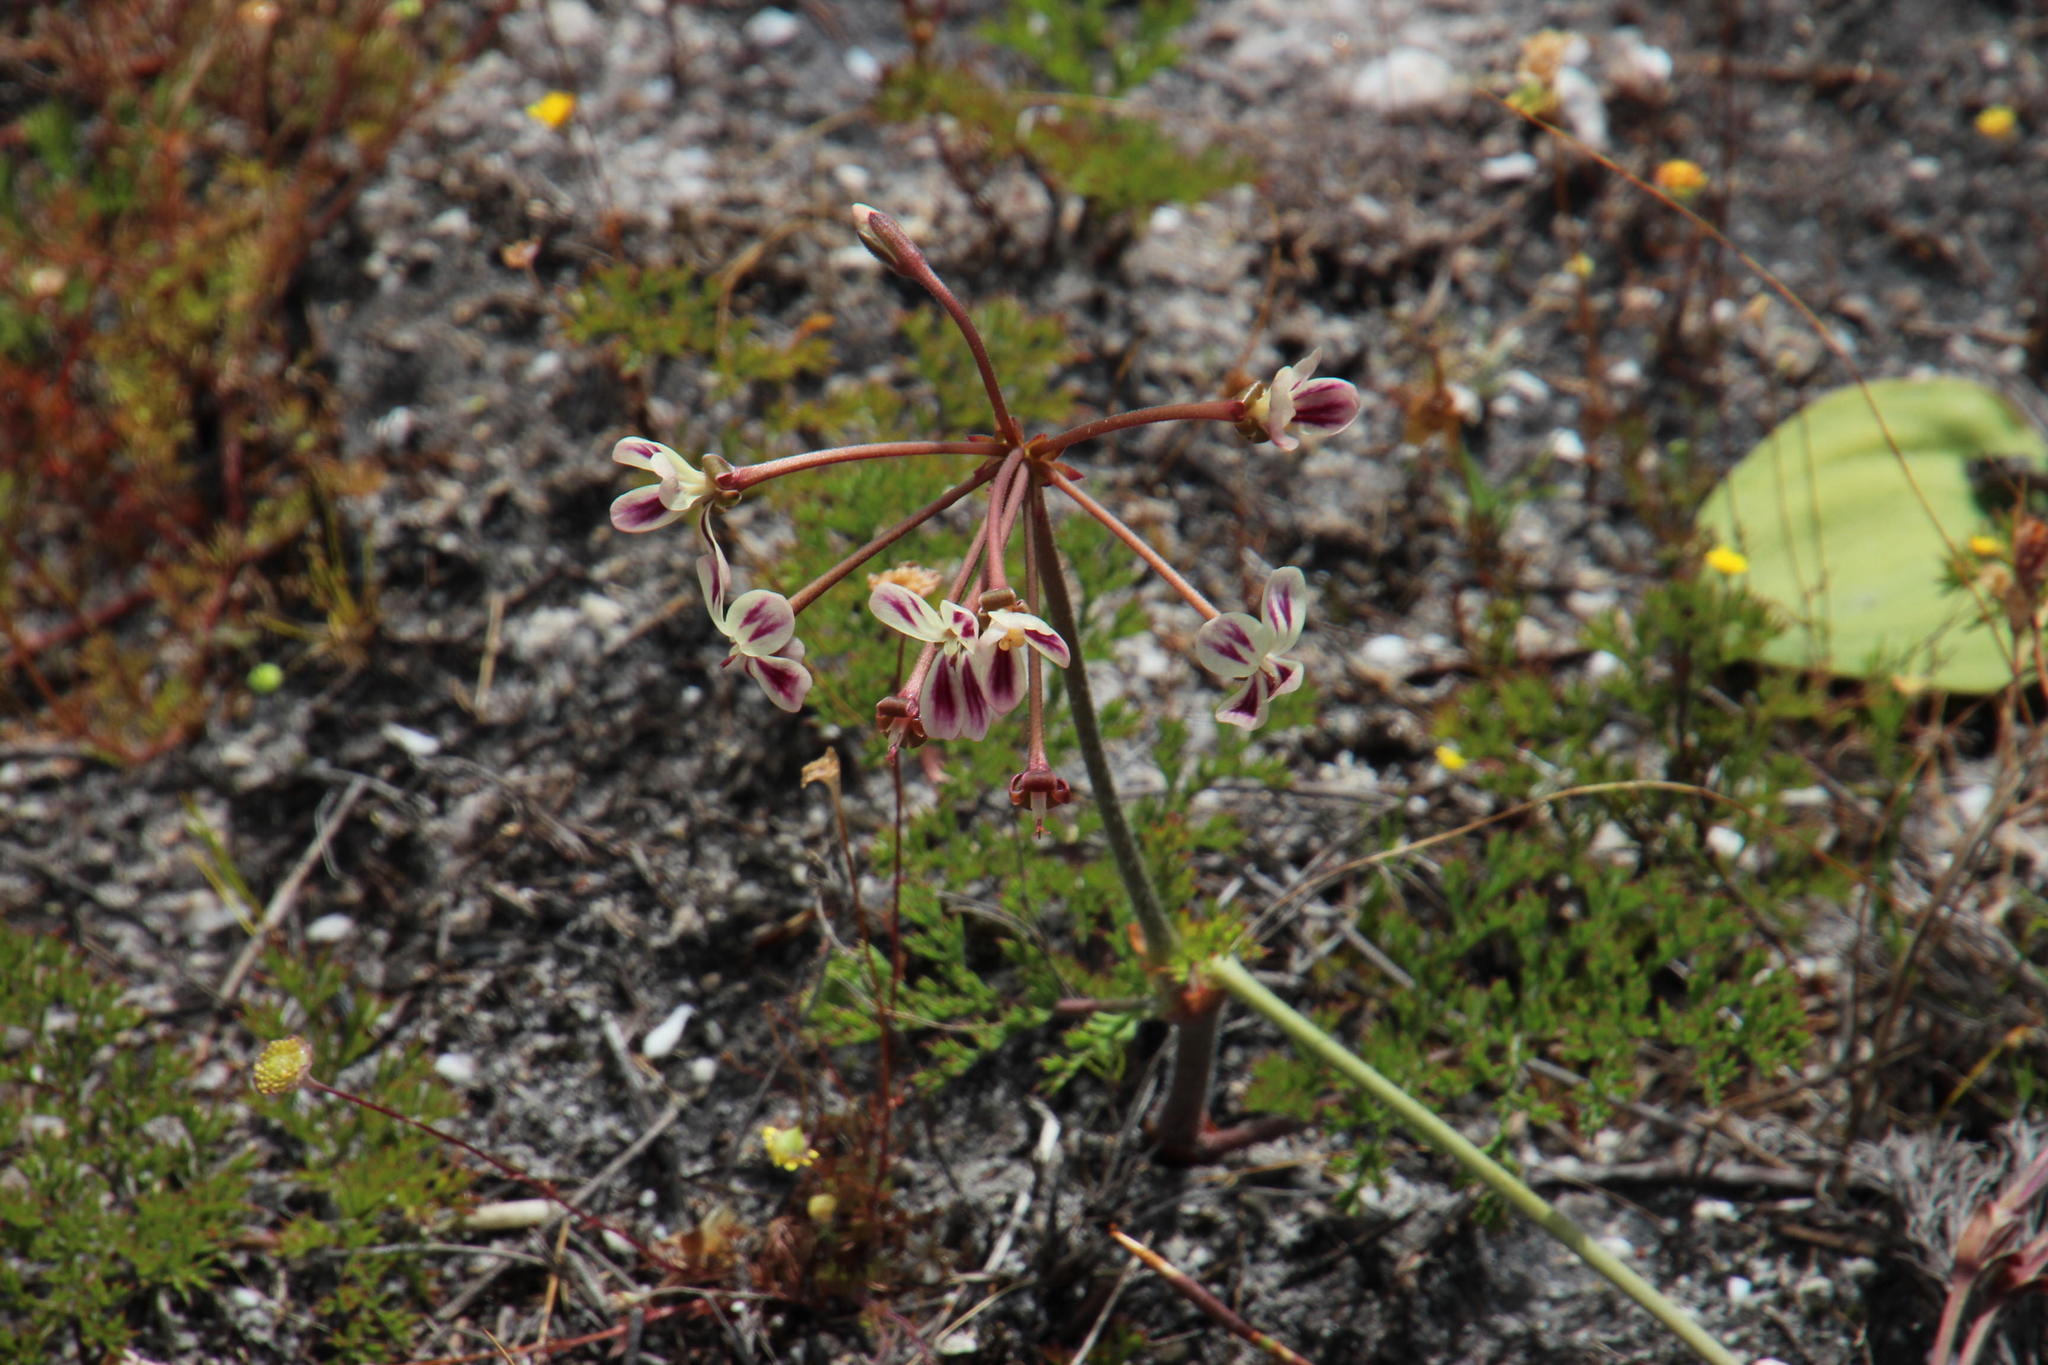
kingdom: Plantae
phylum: Tracheophyta
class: Magnoliopsida
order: Geraniales
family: Geraniaceae
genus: Pelargonium
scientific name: Pelargonium triste
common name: Night-scent pelargonium
